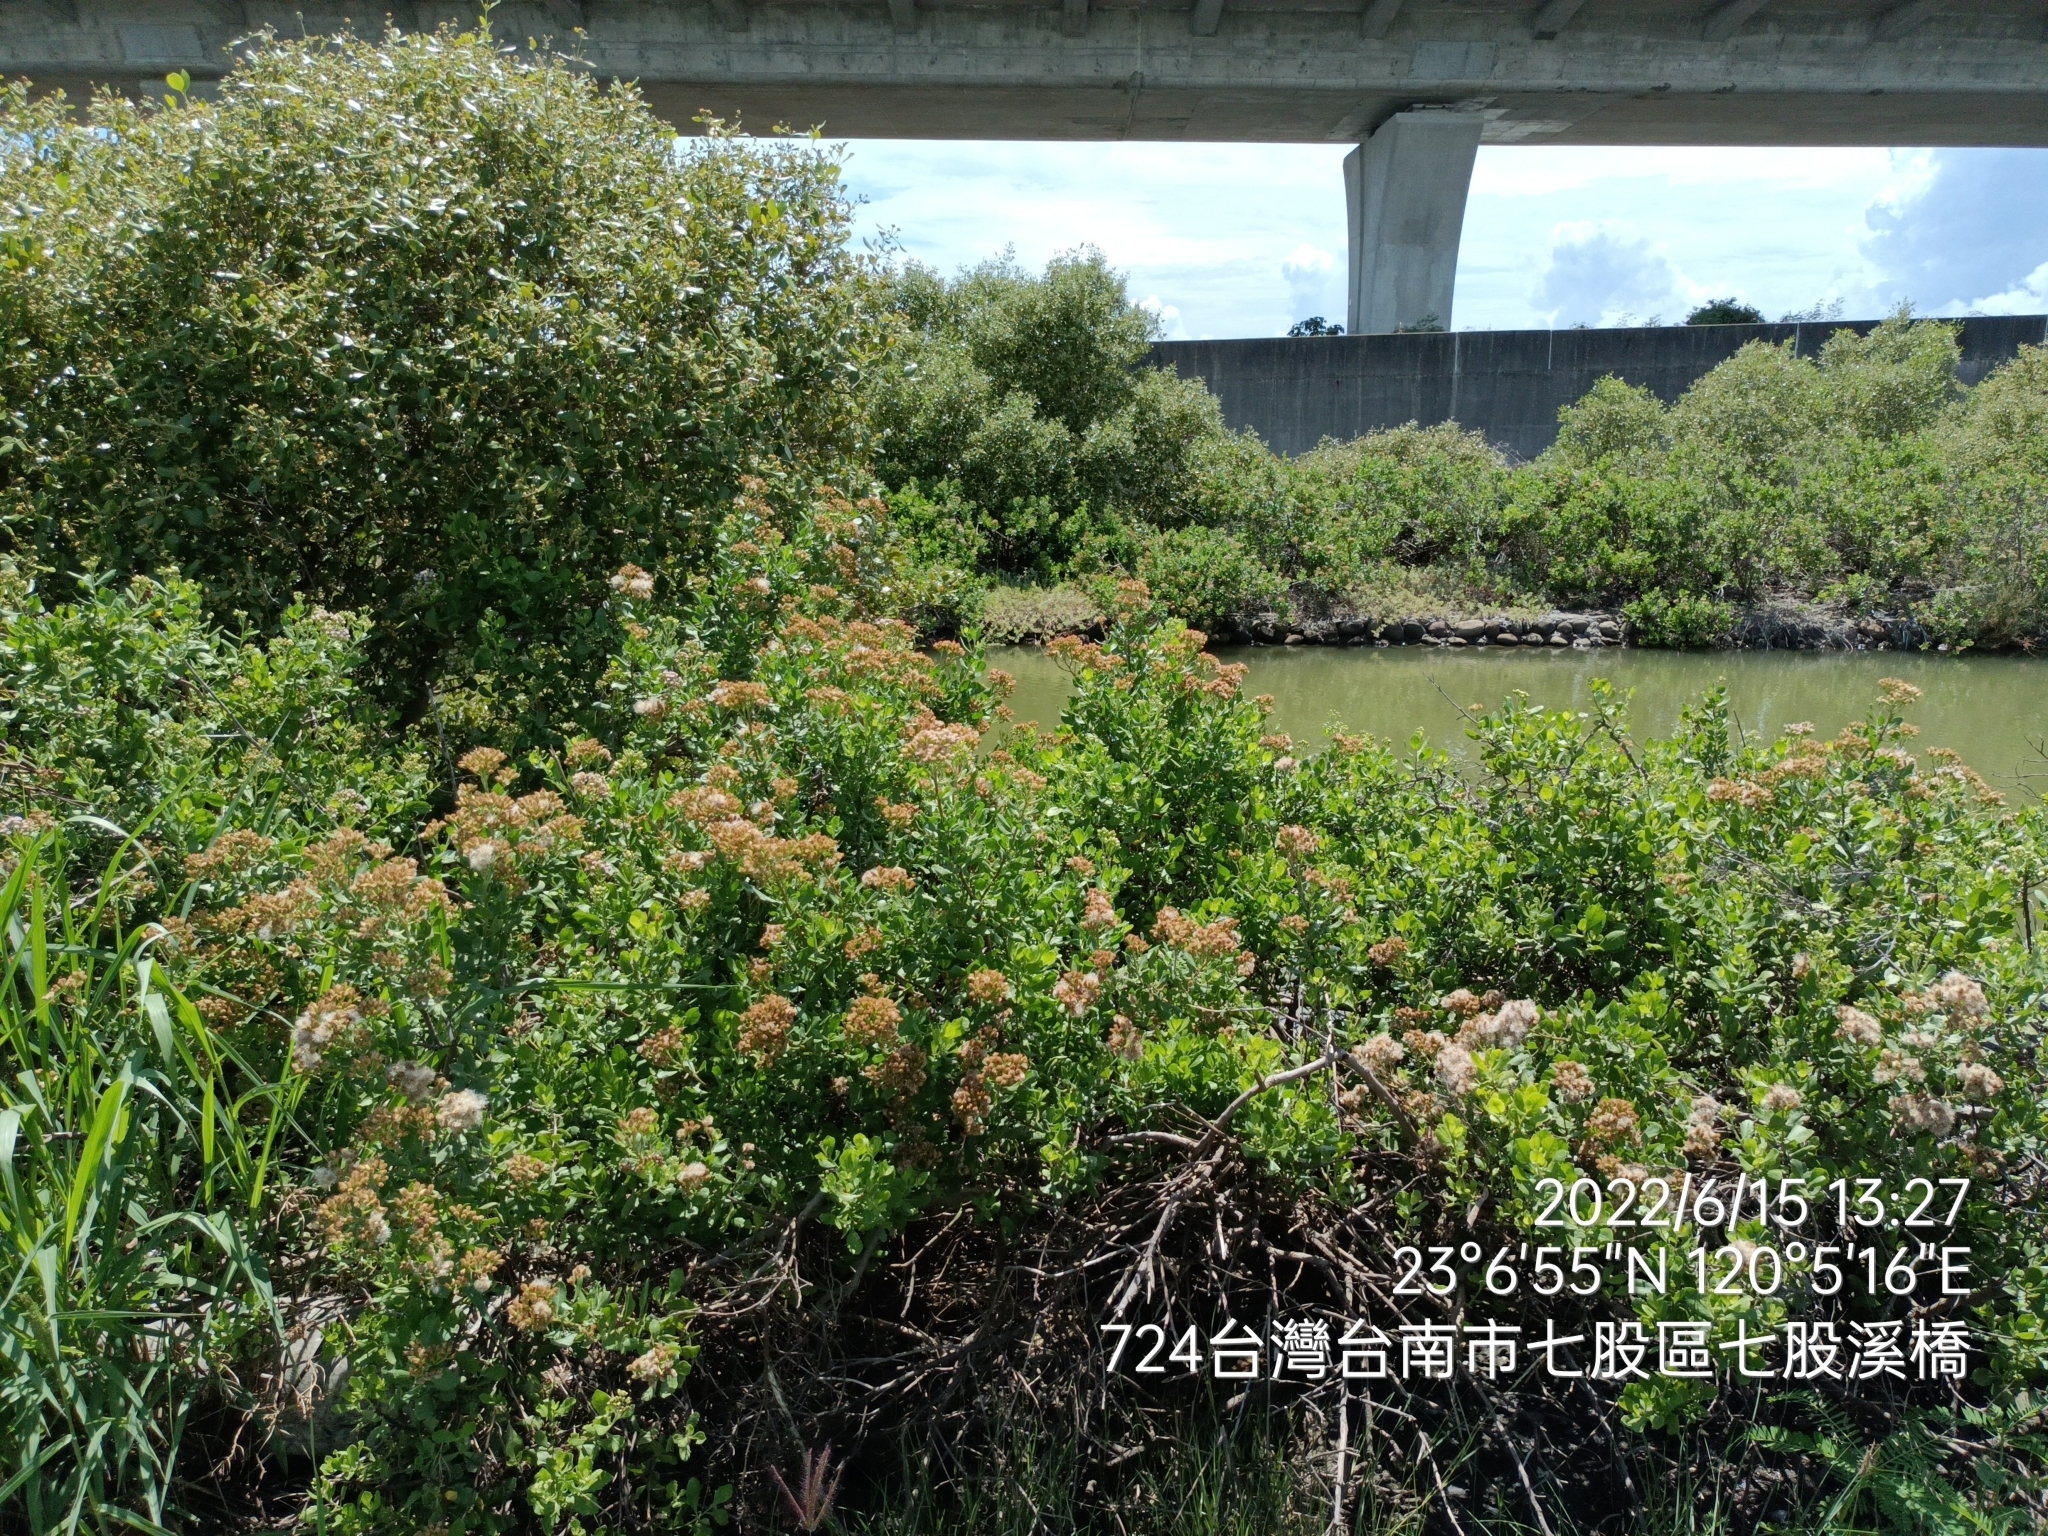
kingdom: Plantae
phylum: Tracheophyta
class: Magnoliopsida
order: Asterales
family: Asteraceae
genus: Pluchea
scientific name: Pluchea indica
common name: Indian fleabane
